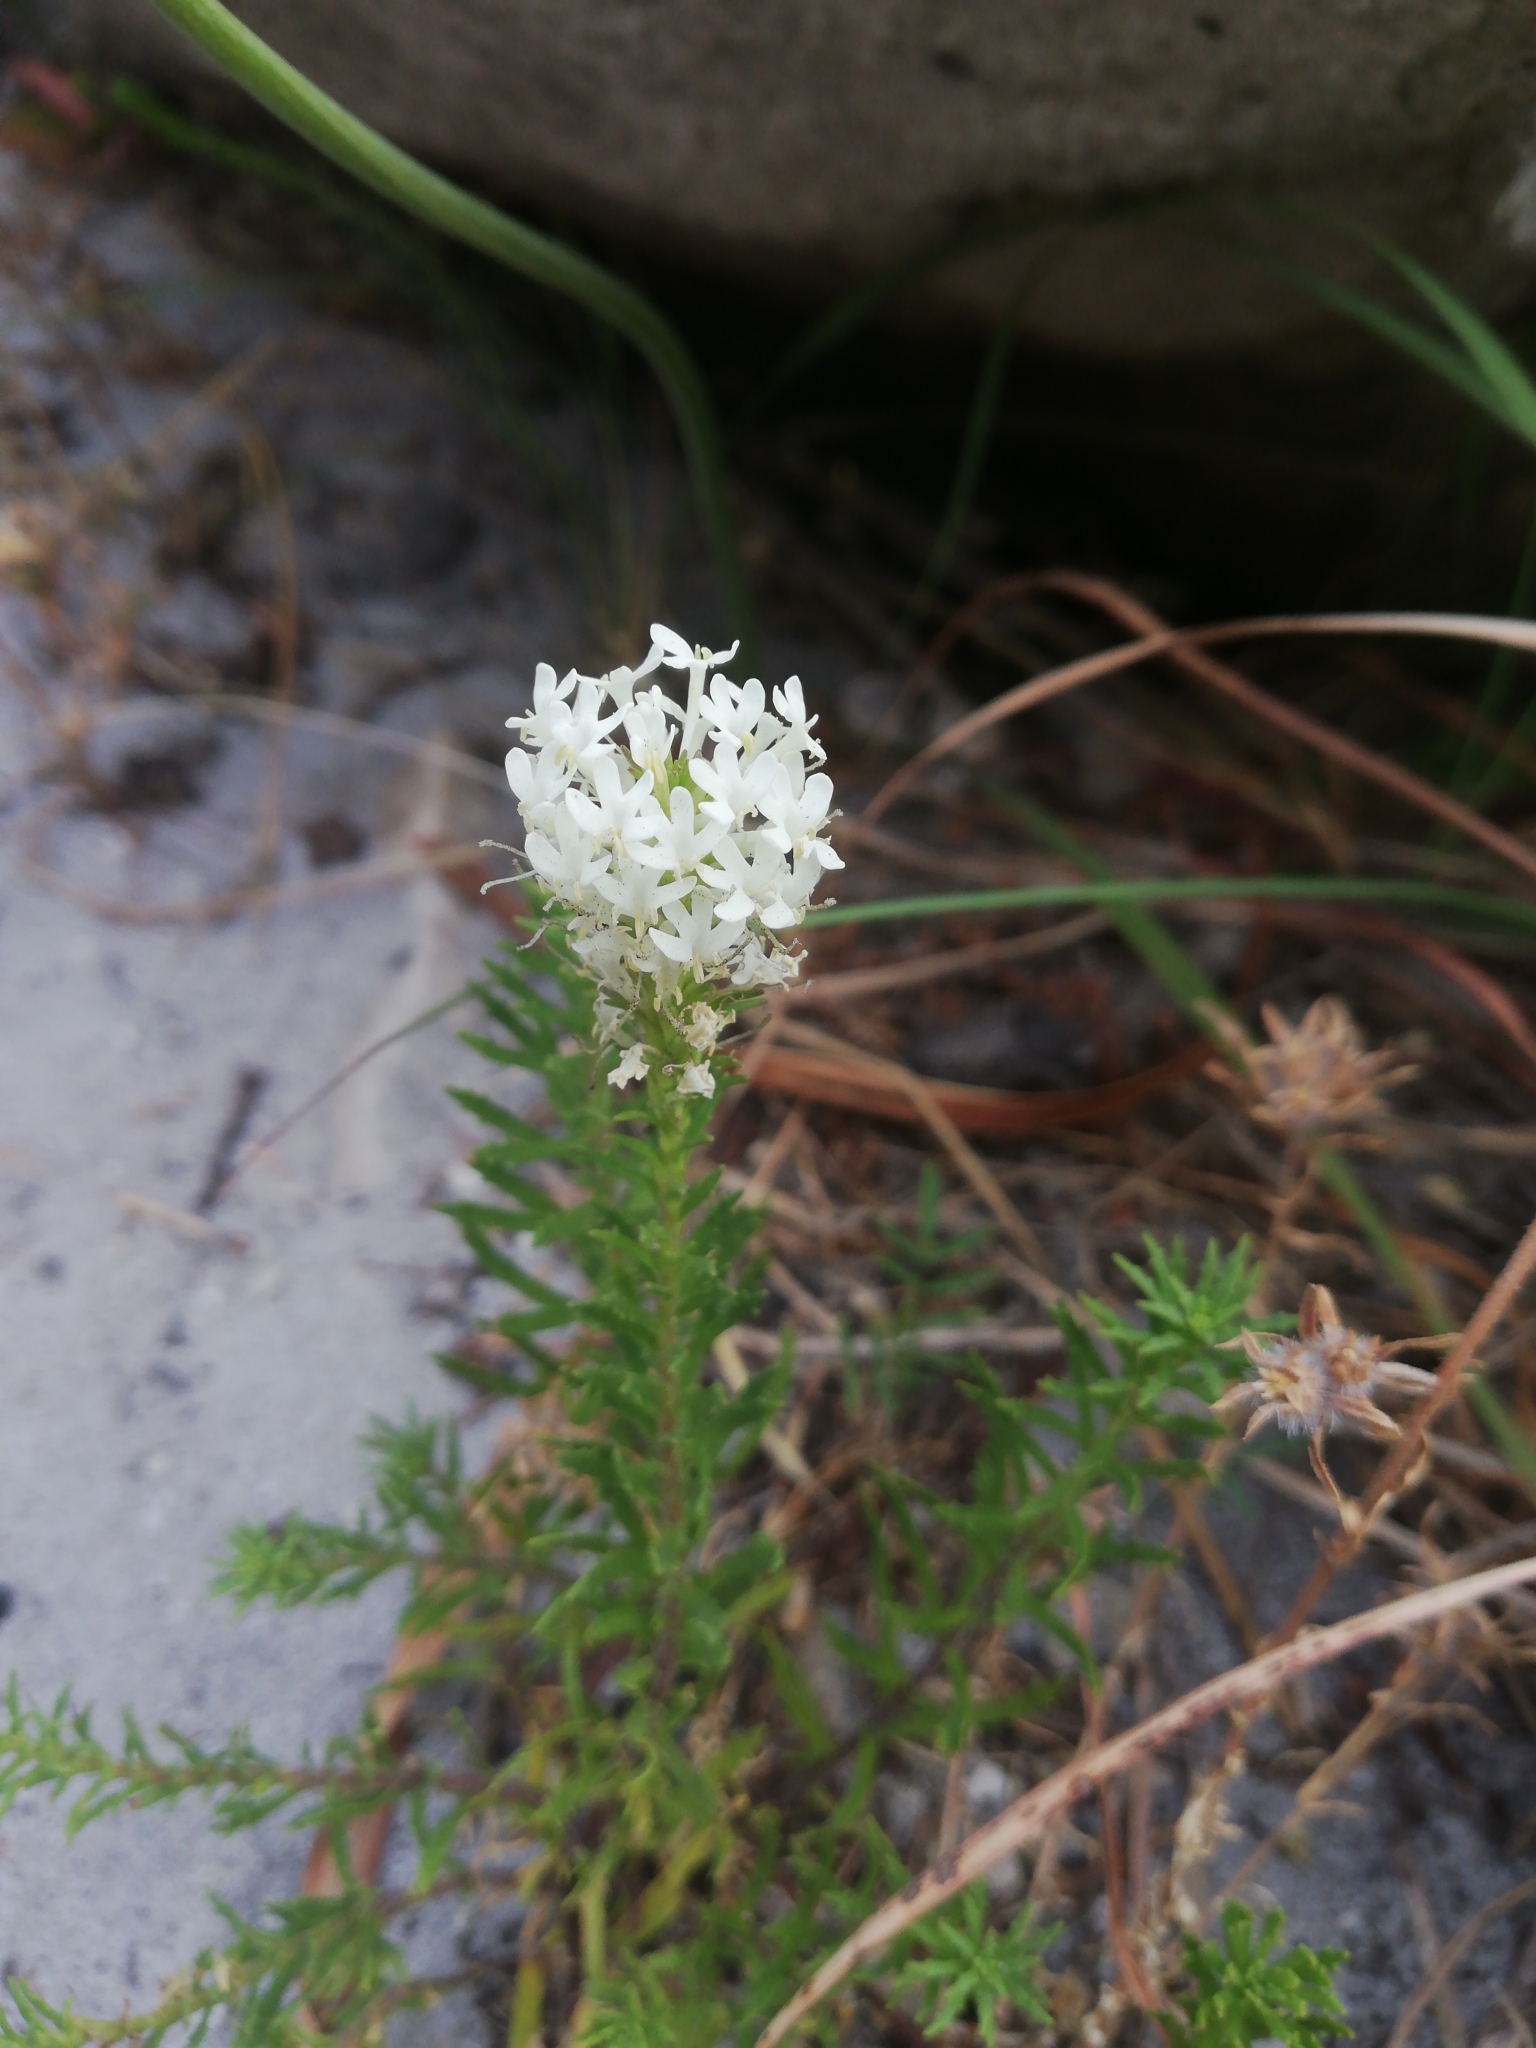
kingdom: Plantae
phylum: Tracheophyta
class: Magnoliopsida
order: Lamiales
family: Scrophulariaceae
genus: Dischisma
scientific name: Dischisma ciliatum
